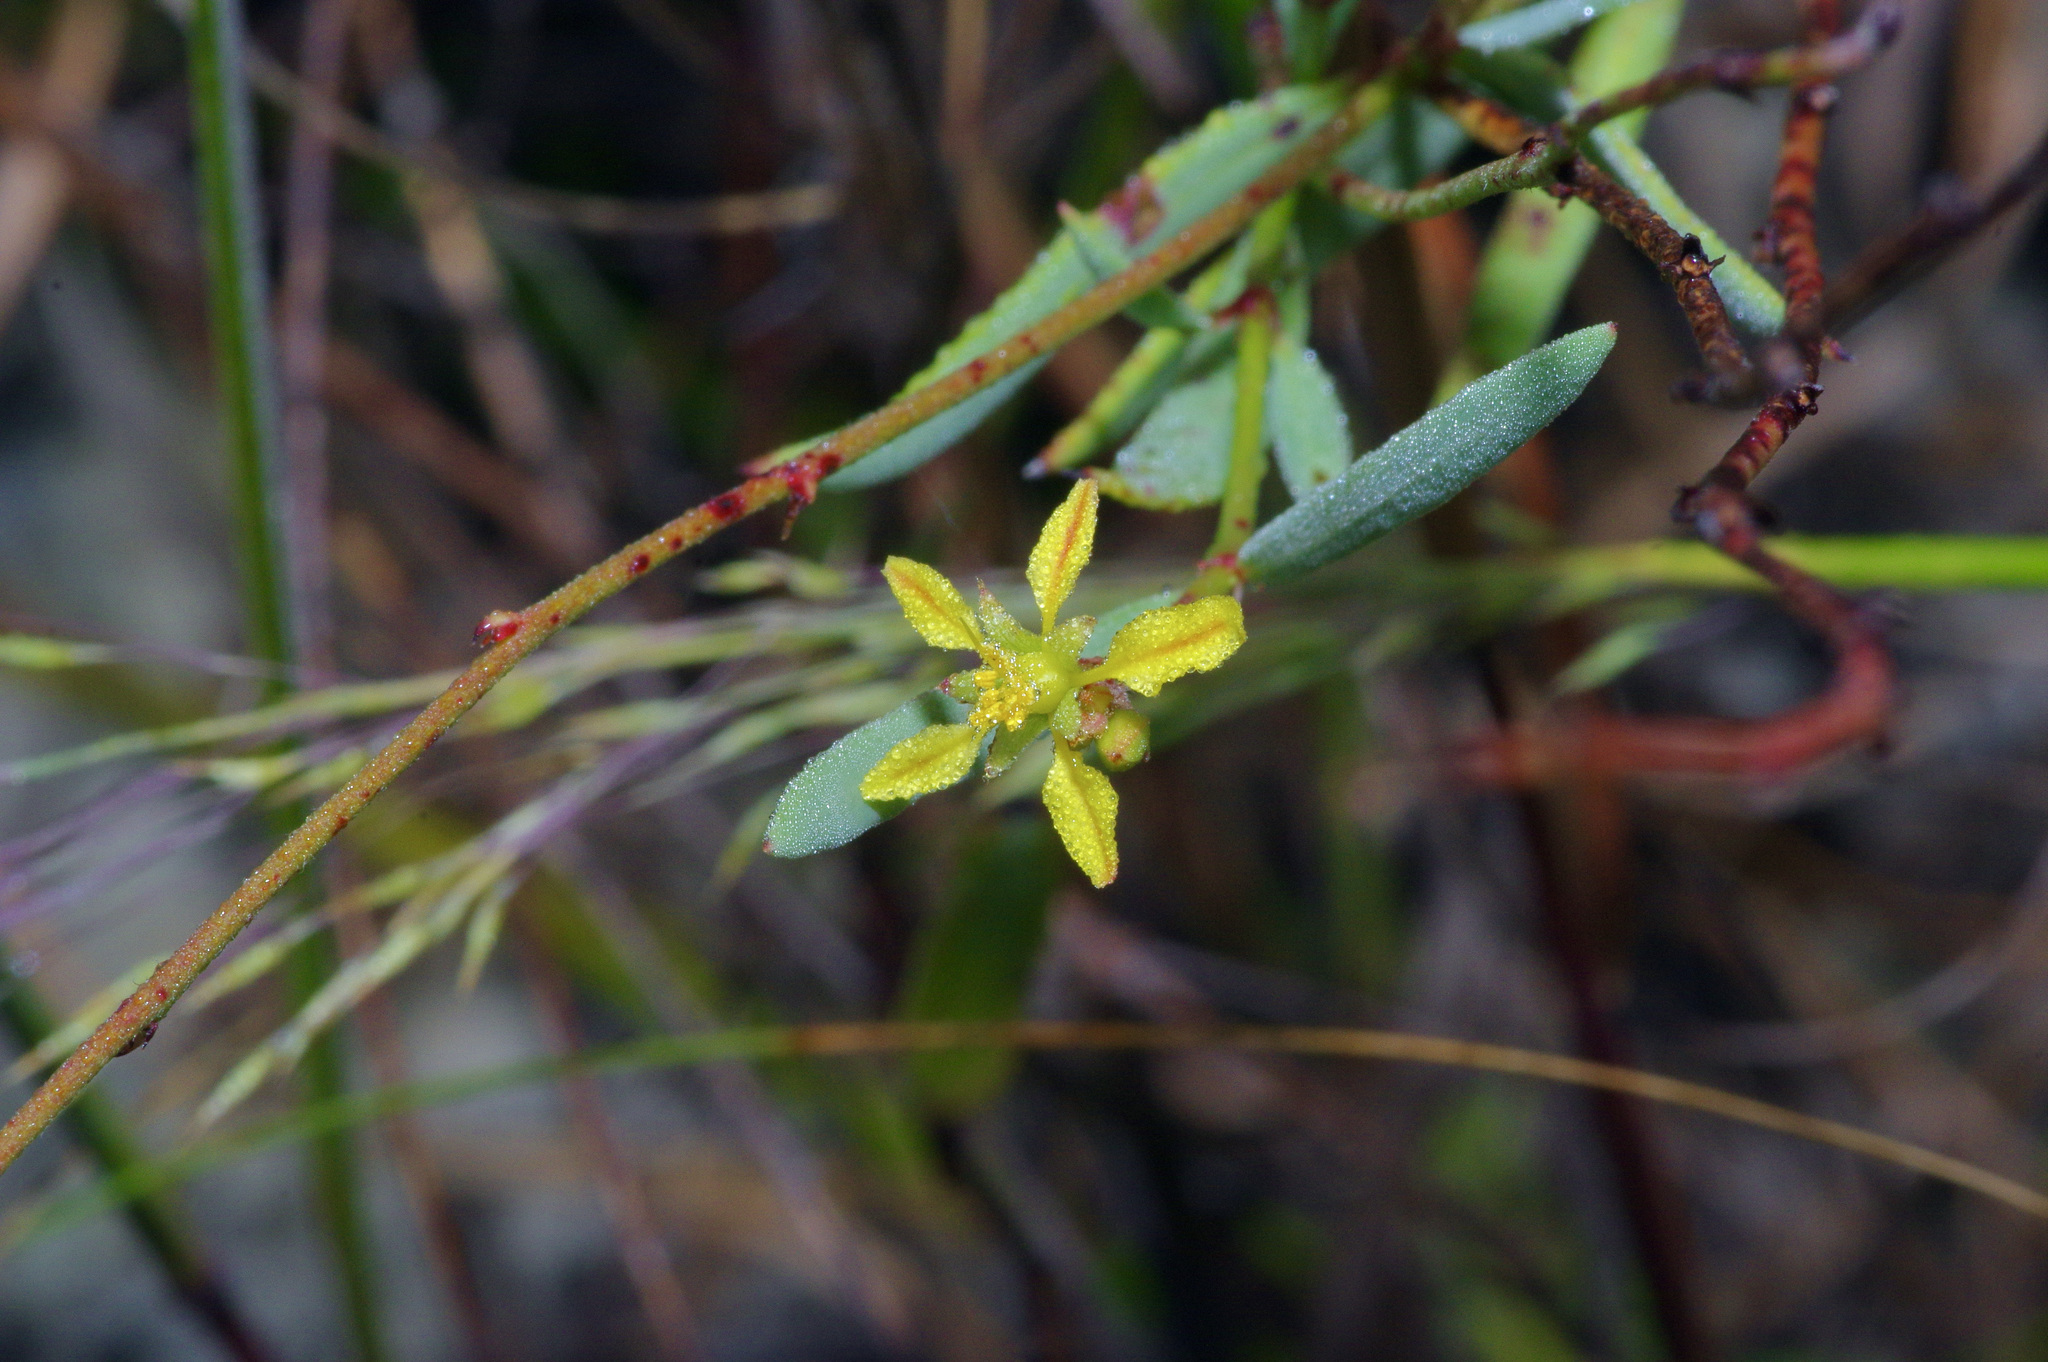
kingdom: Plantae
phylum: Tracheophyta
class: Magnoliopsida
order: Malpighiales
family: Malpighiaceae
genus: Galphimia
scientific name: Galphimia angustifolia
